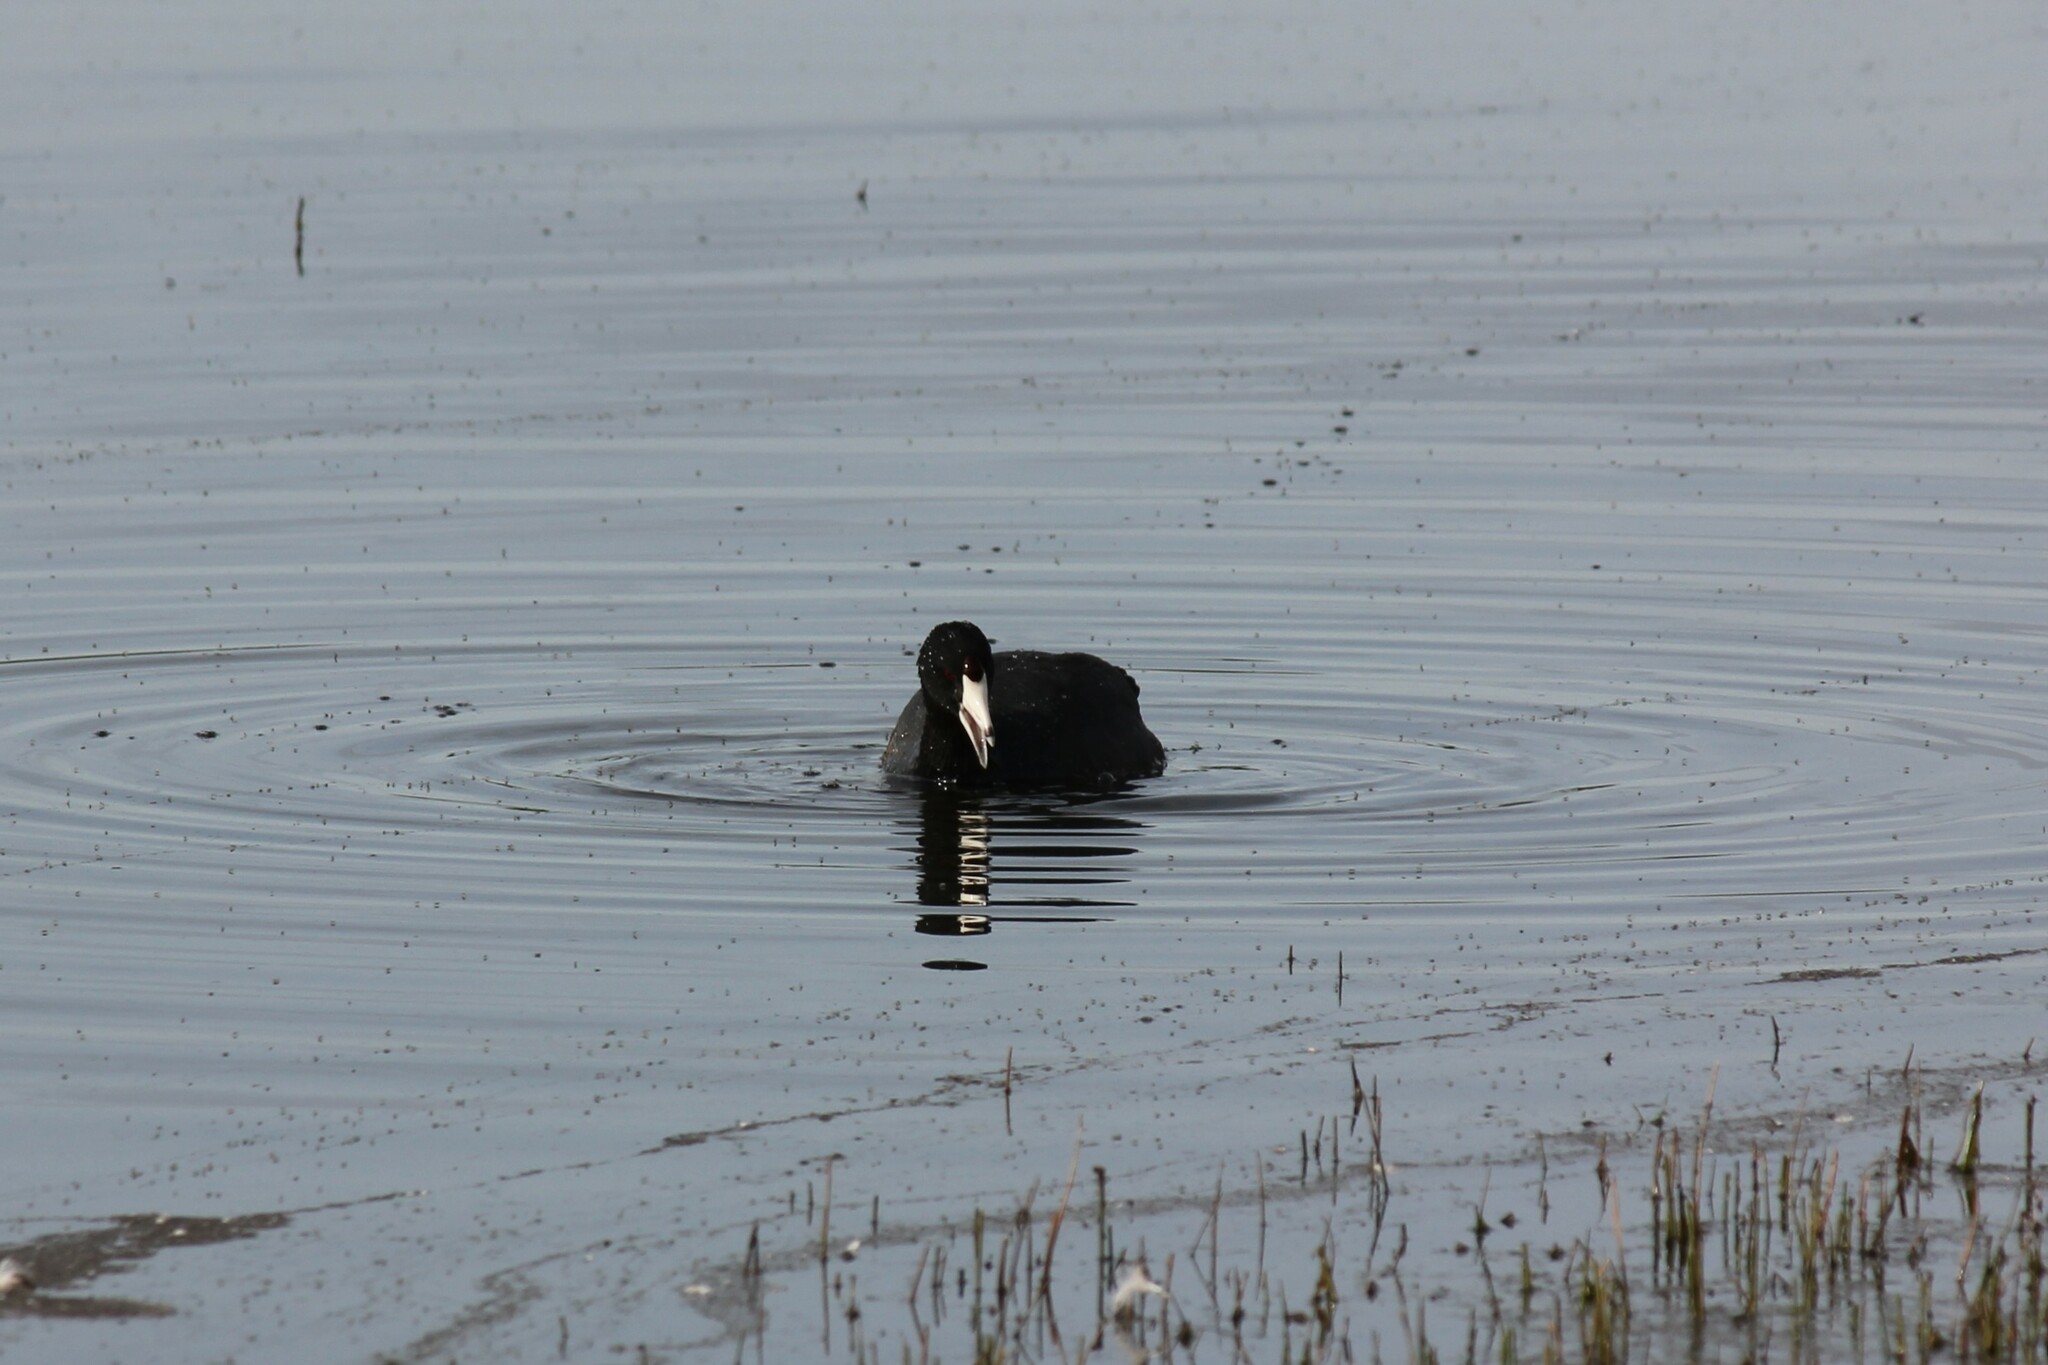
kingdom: Animalia
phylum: Chordata
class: Aves
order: Gruiformes
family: Rallidae
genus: Fulica
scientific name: Fulica americana
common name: American coot
